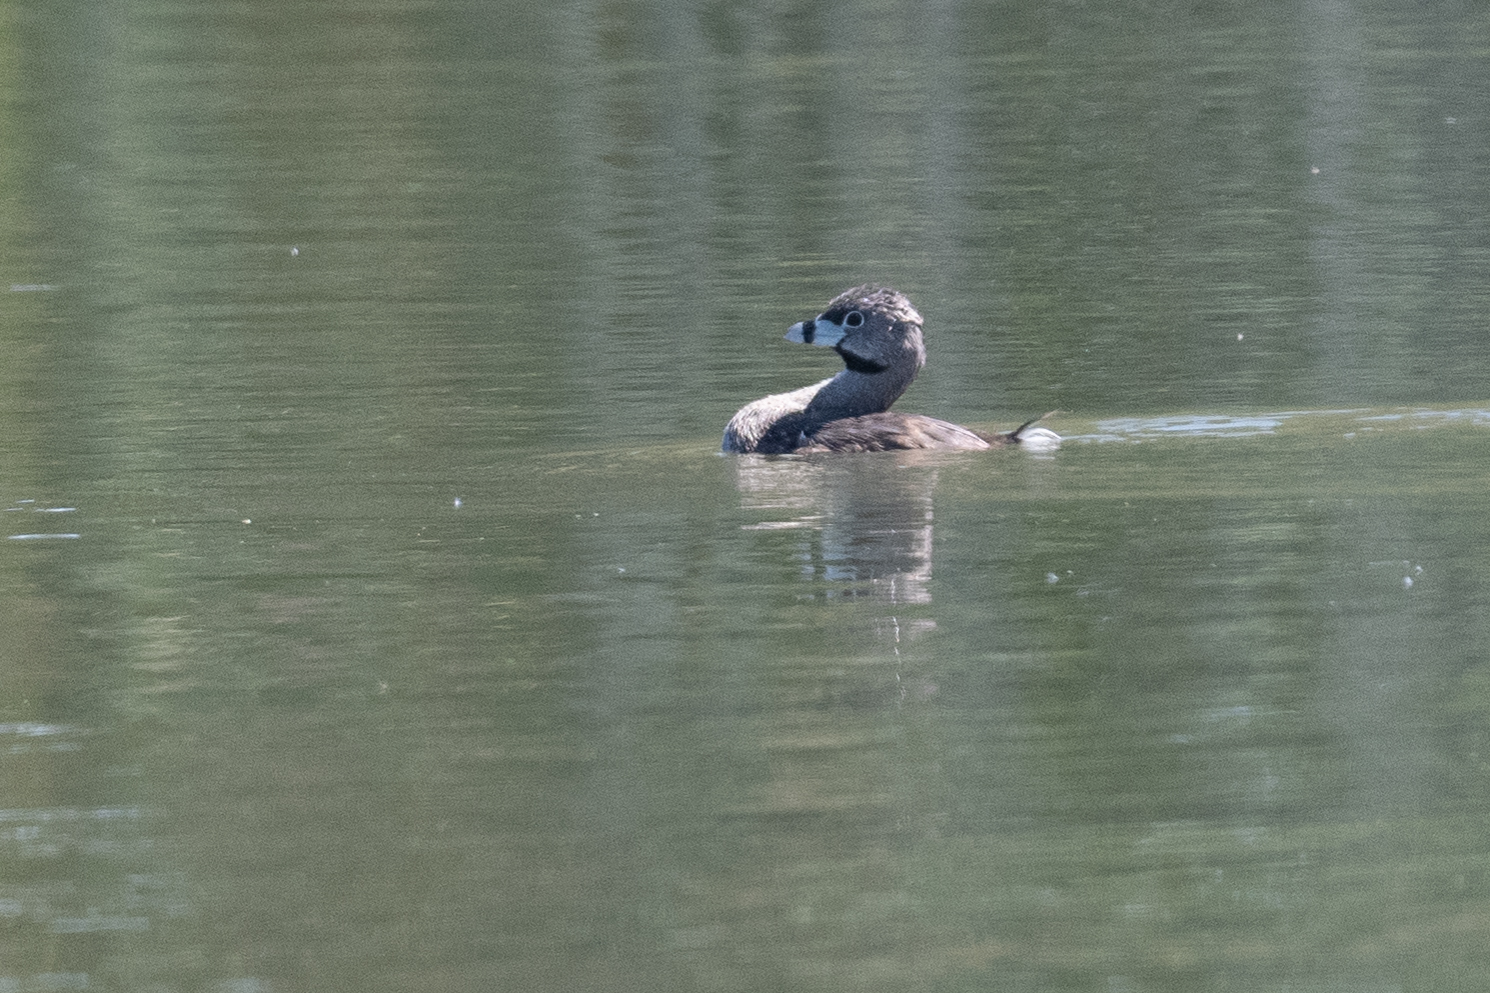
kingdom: Animalia
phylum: Chordata
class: Aves
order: Podicipediformes
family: Podicipedidae
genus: Podilymbus
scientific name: Podilymbus podiceps
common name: Pied-billed grebe
